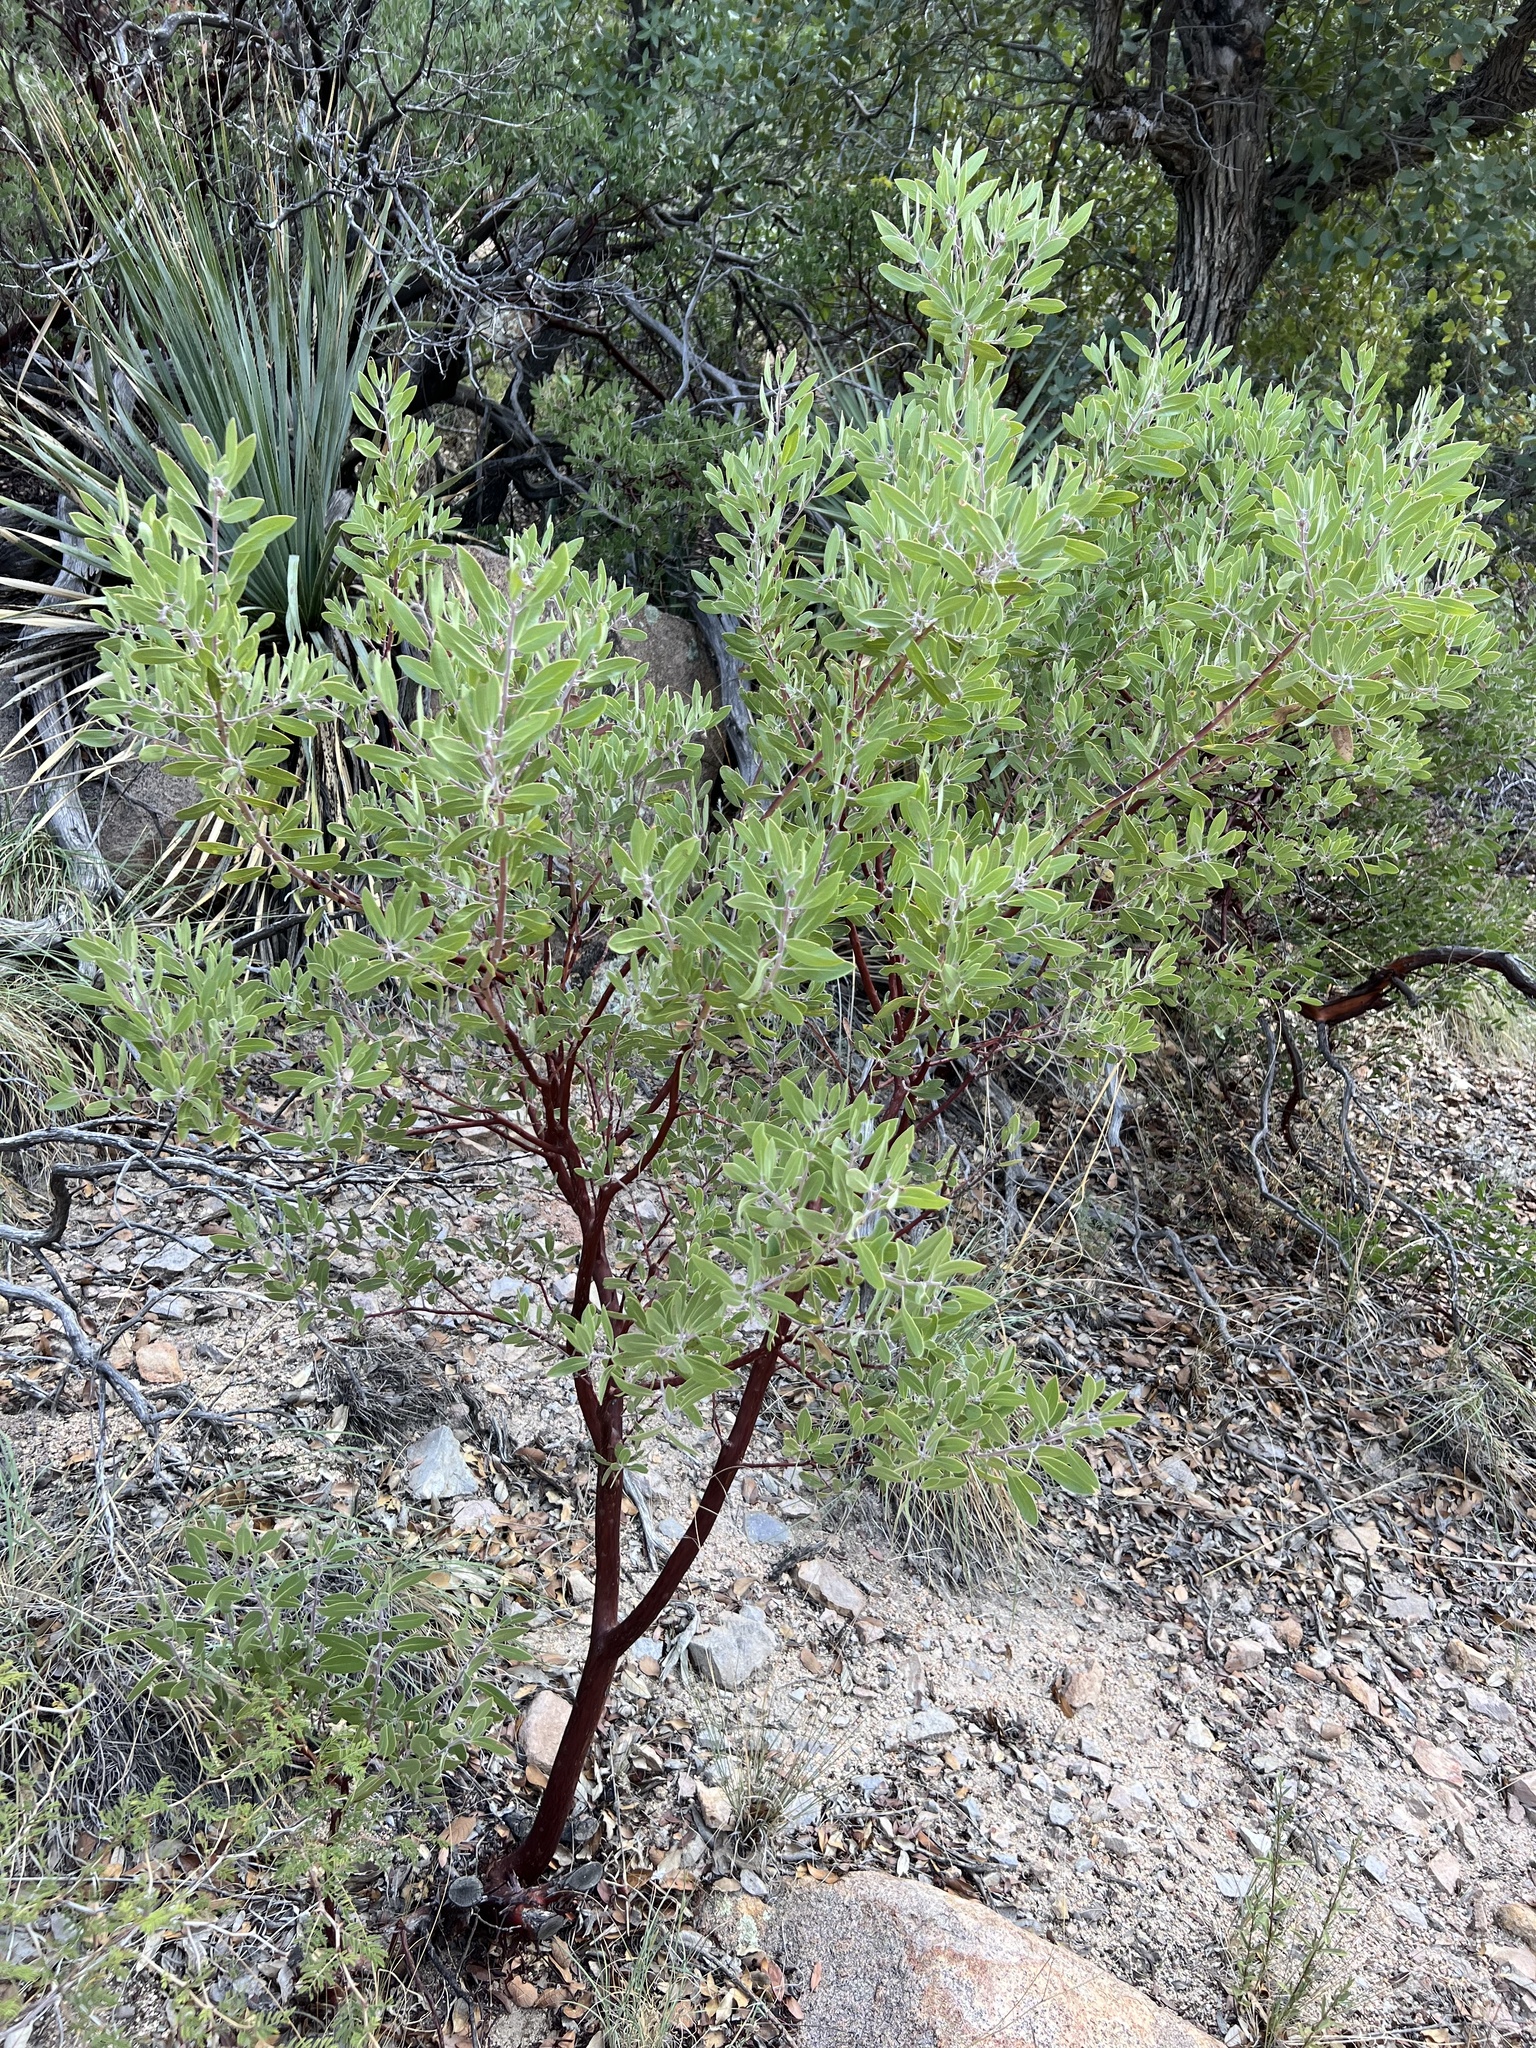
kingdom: Plantae
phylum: Tracheophyta
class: Magnoliopsida
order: Ericales
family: Ericaceae
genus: Arctostaphylos
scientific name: Arctostaphylos pungens
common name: Mexican manzanita
